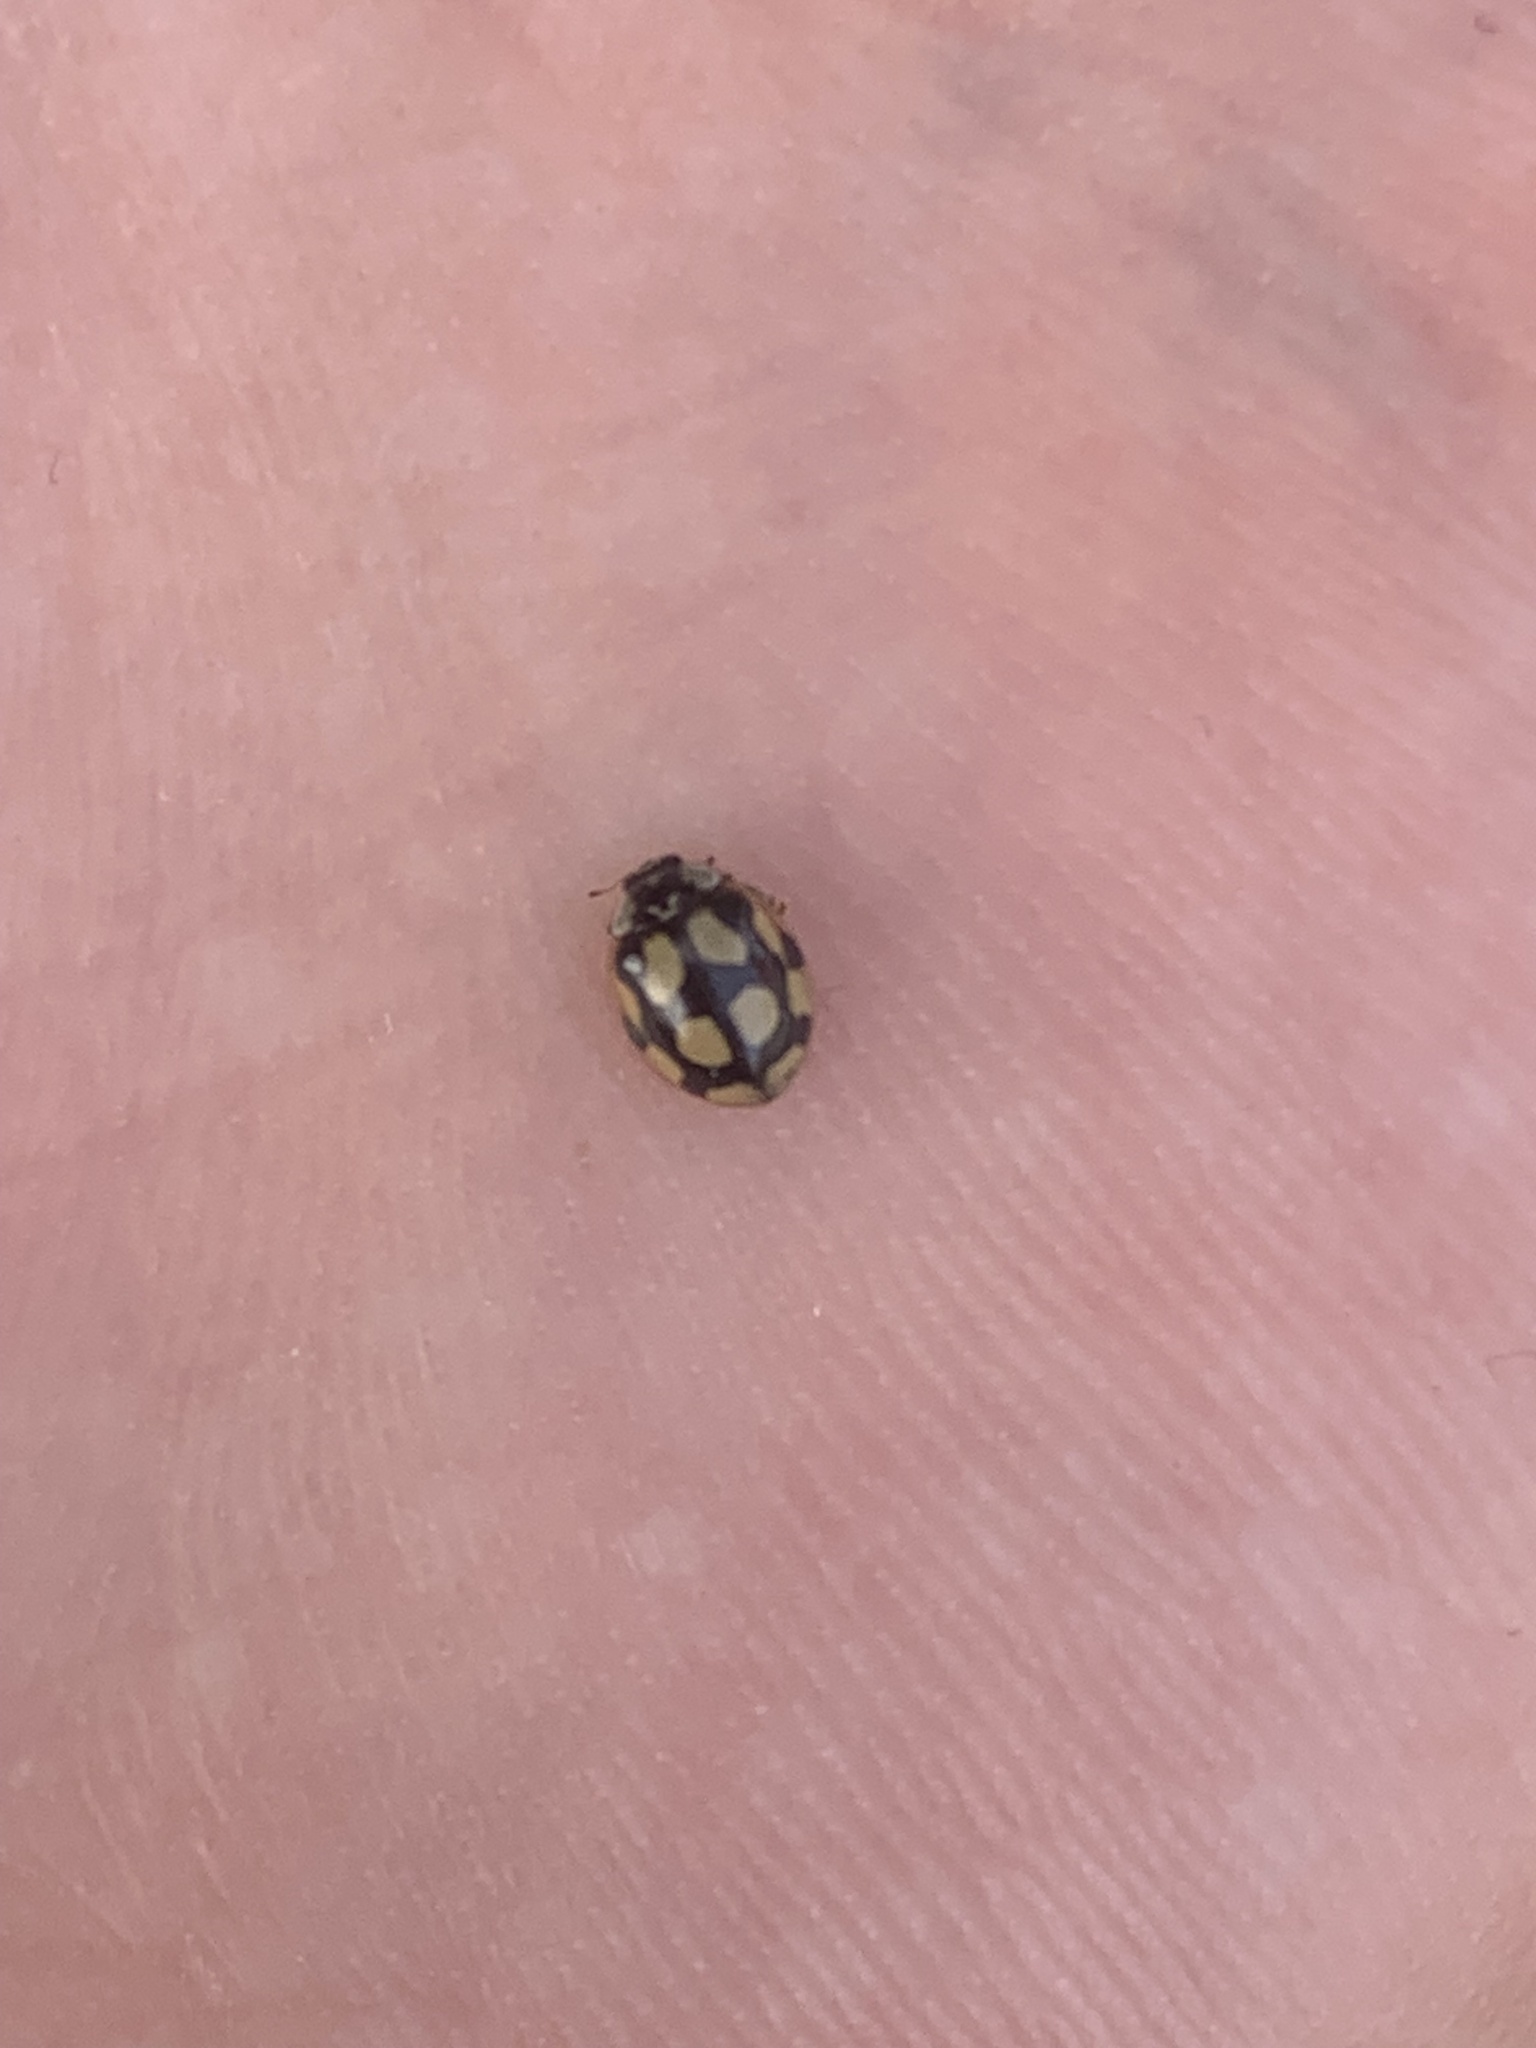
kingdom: Animalia
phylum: Arthropoda
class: Insecta
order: Coleoptera
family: Coccinellidae
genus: Adalia
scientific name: Adalia decempunctata
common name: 10-spot ladybird
